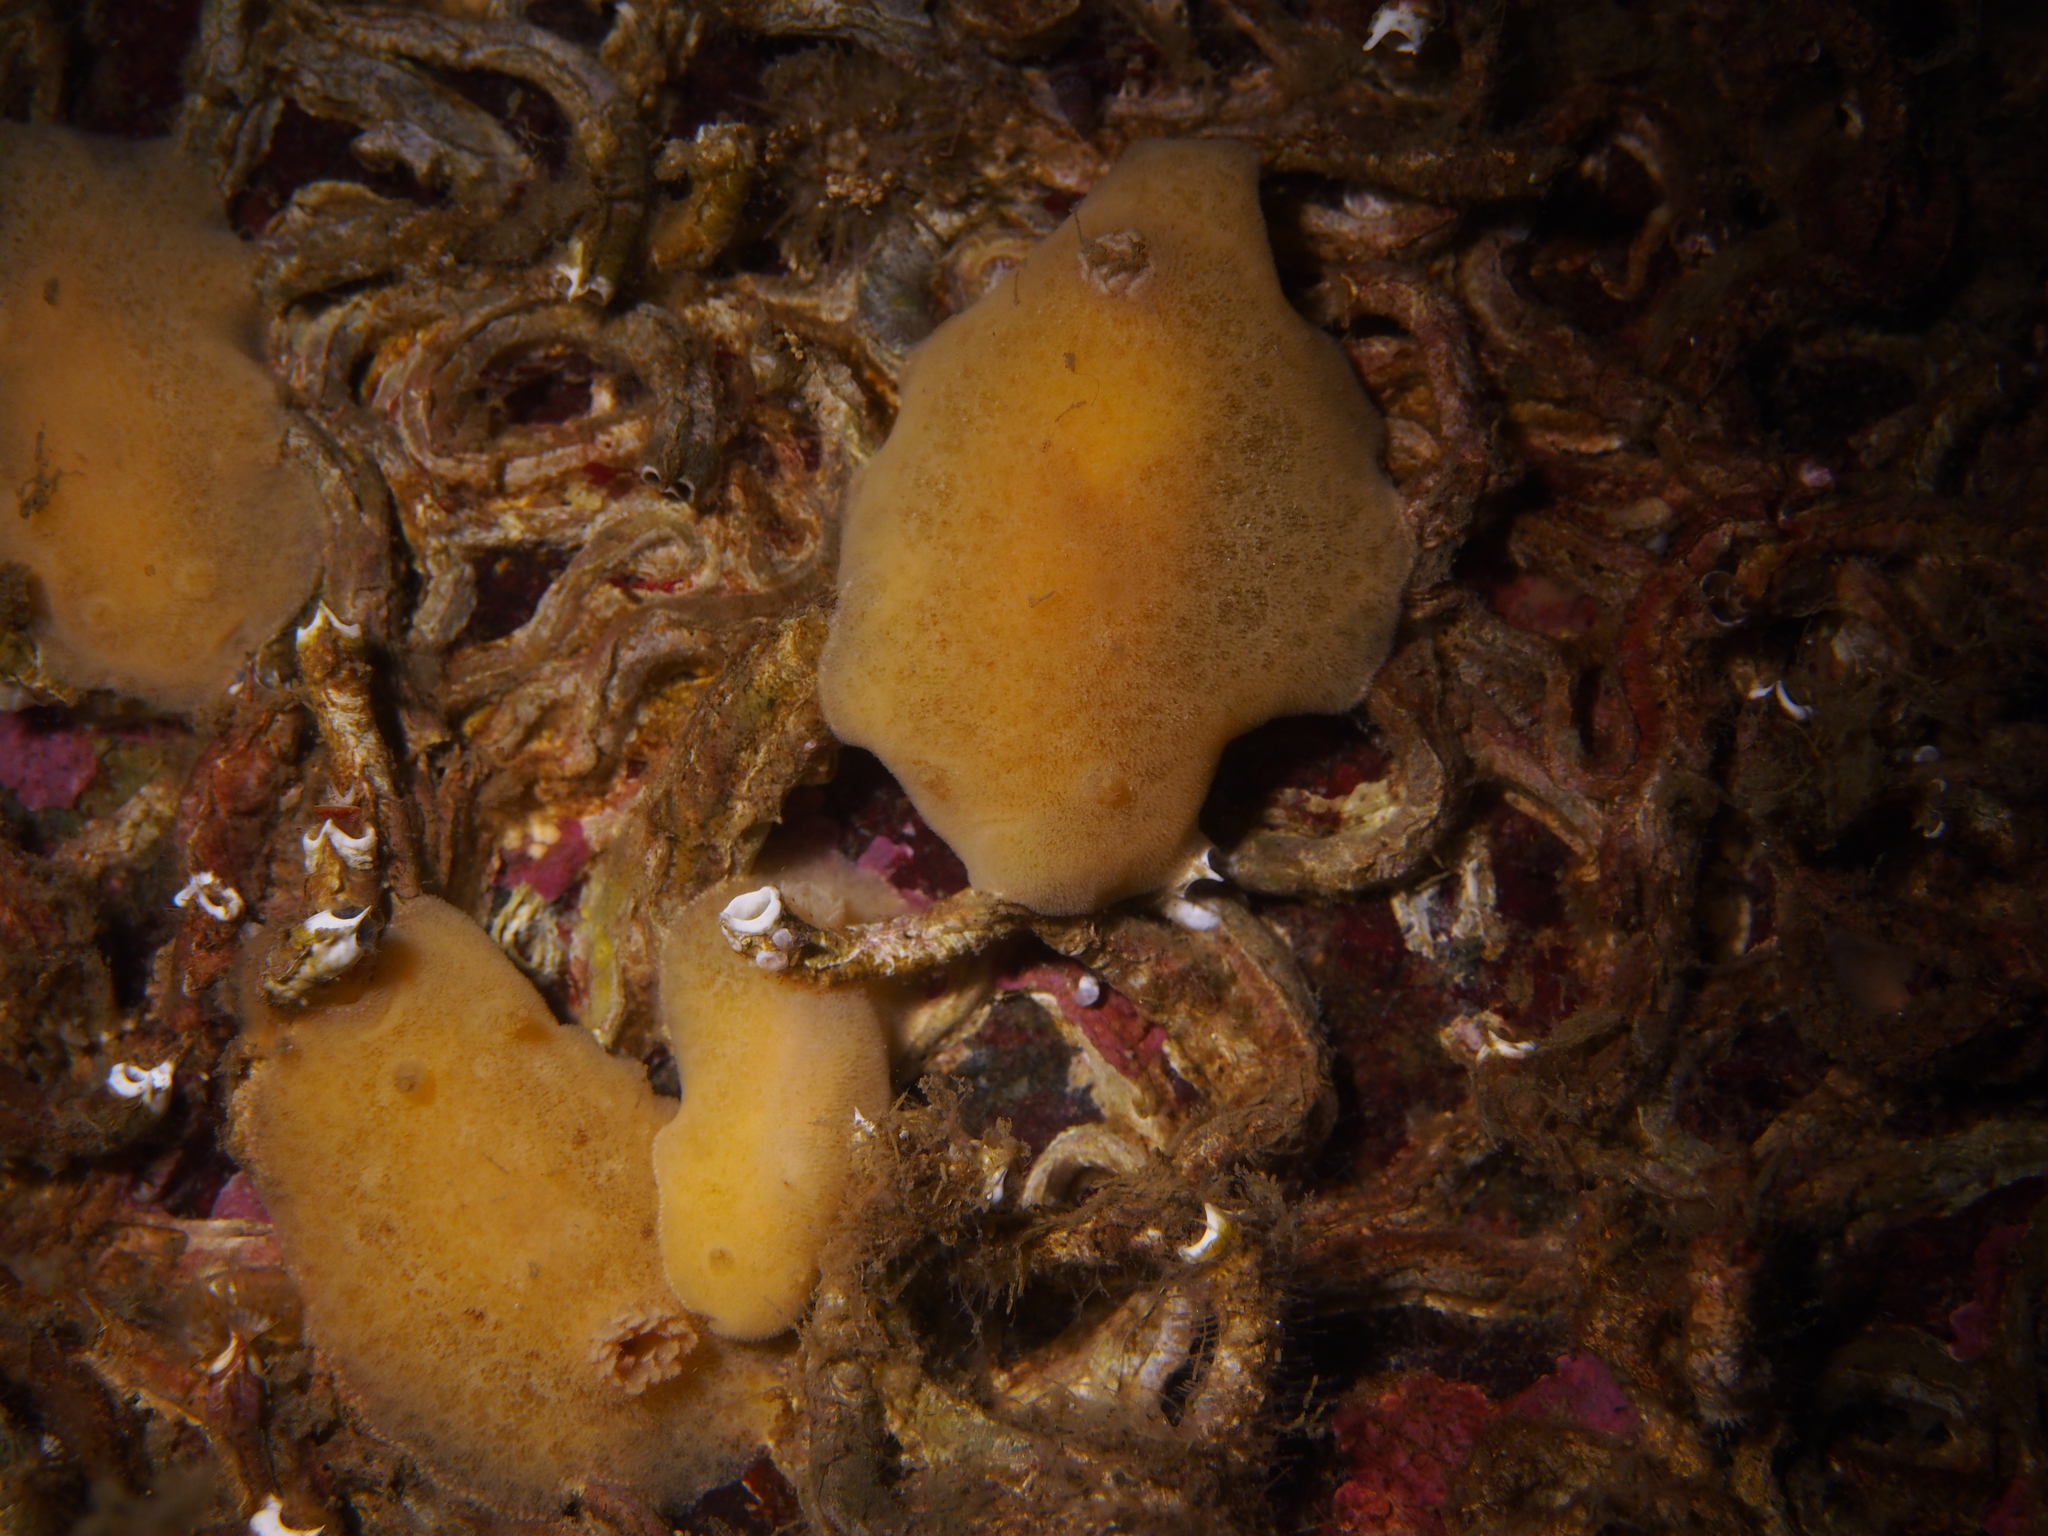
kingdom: Animalia
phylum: Mollusca
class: Gastropoda
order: Nudibranchia
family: Discodorididae
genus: Jorunna
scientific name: Jorunna tomentosa
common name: Grey sea slug
